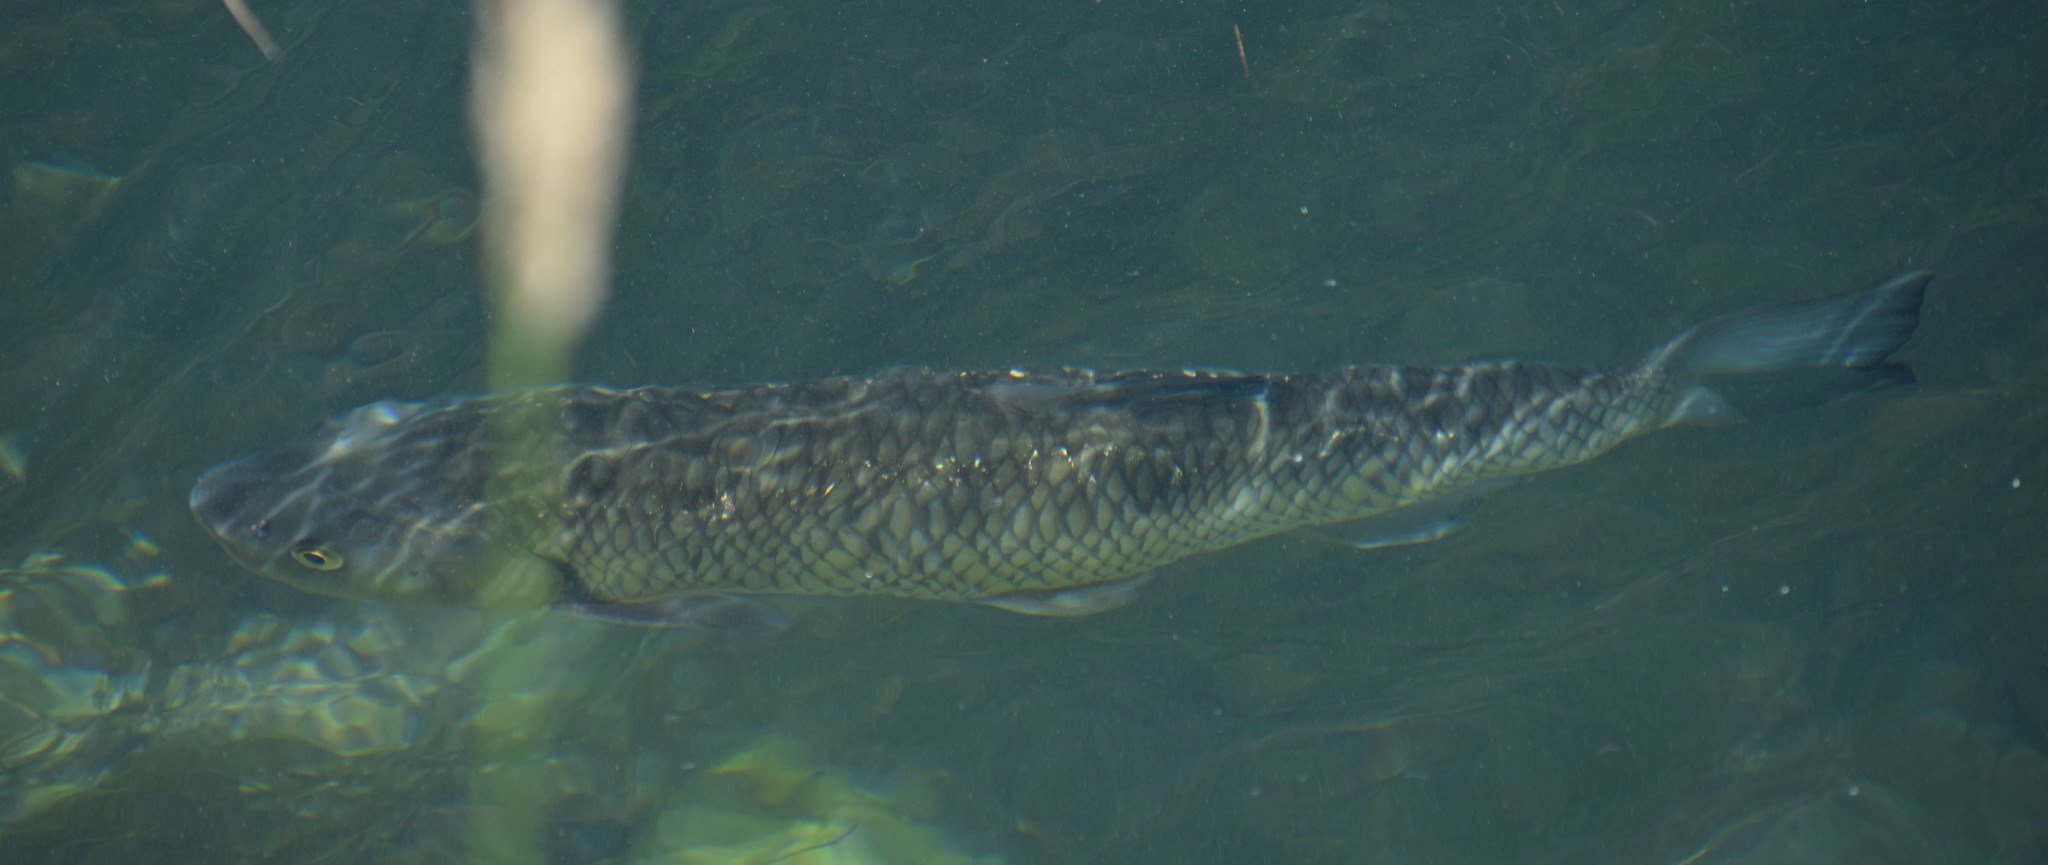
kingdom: Animalia
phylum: Chordata
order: Cypriniformes
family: Cyprinidae
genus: Squalius
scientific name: Squalius cephalus
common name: Chub
